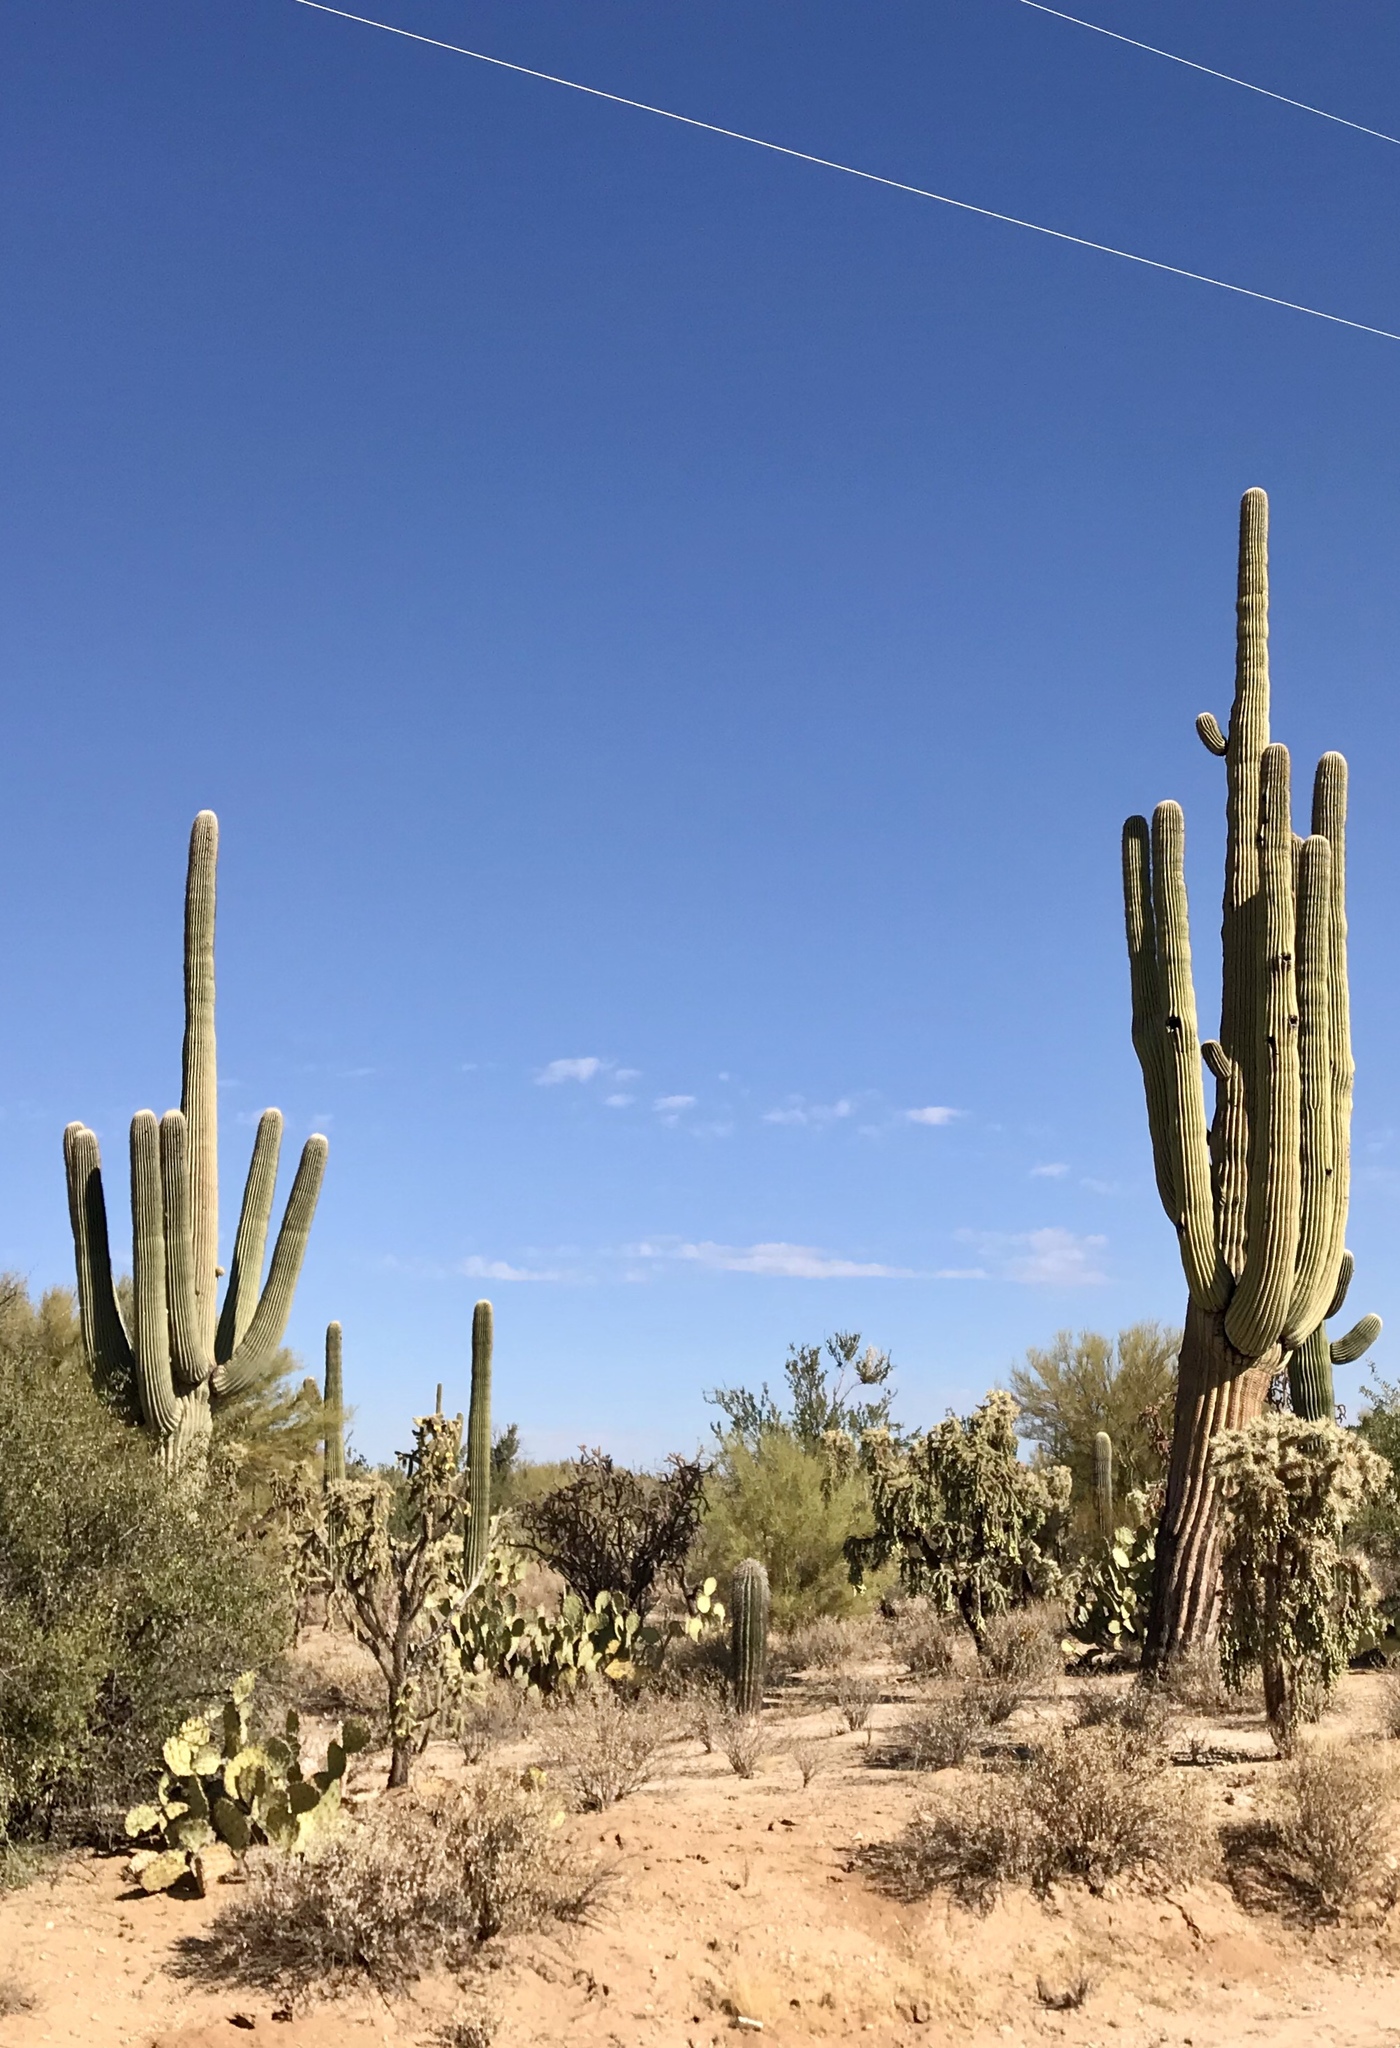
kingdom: Plantae
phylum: Tracheophyta
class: Magnoliopsida
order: Caryophyllales
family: Cactaceae
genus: Carnegiea
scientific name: Carnegiea gigantea
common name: Saguaro
